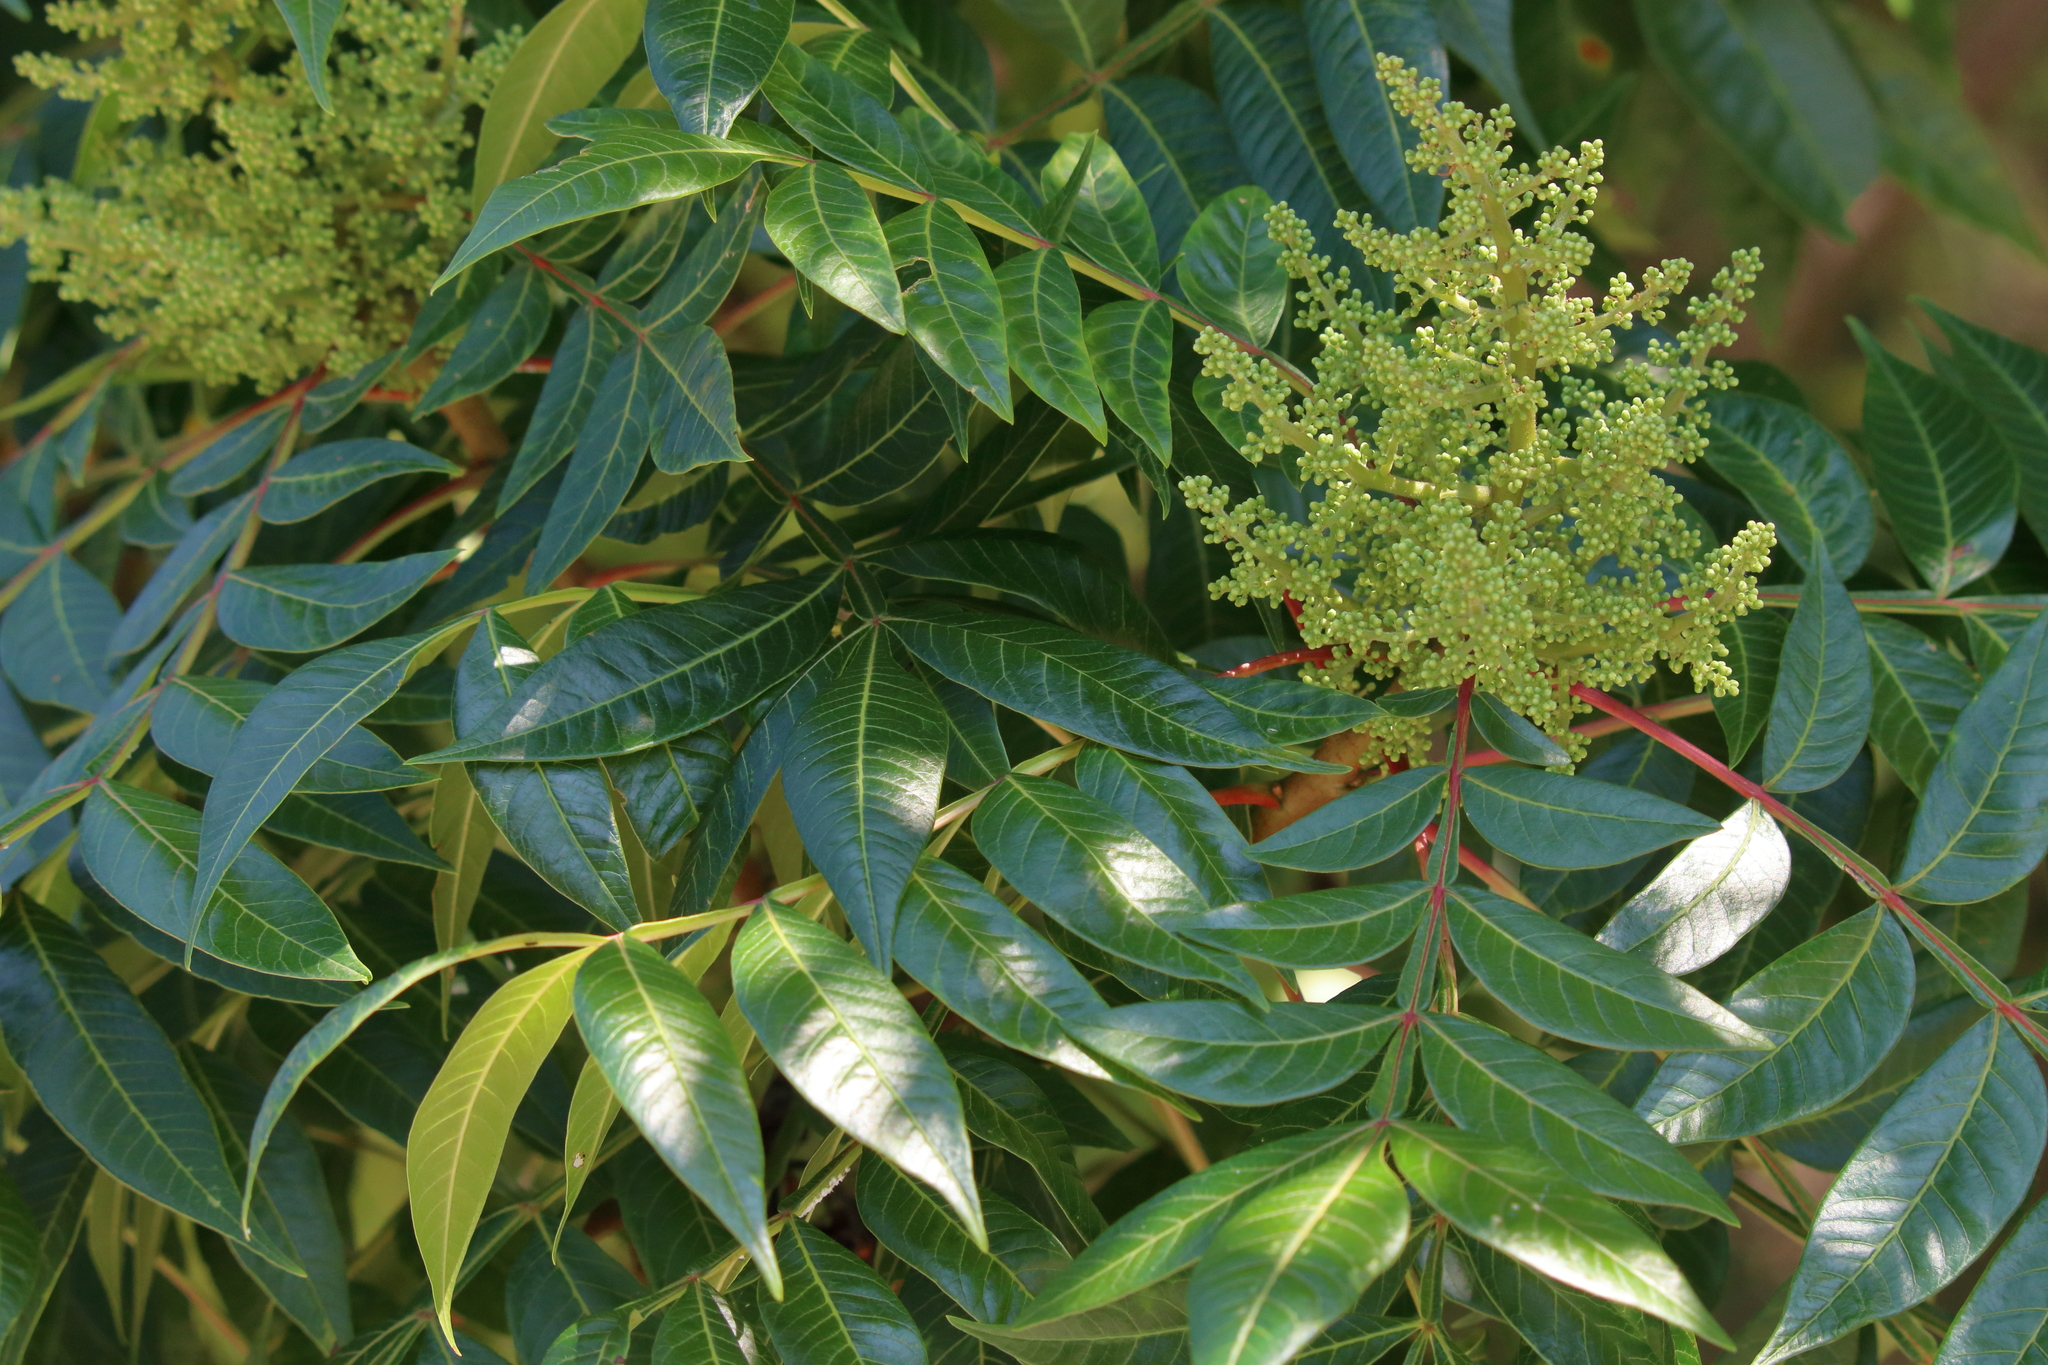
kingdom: Plantae
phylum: Tracheophyta
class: Magnoliopsida
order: Sapindales
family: Anacardiaceae
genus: Rhus
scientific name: Rhus copallina
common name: Shining sumac
